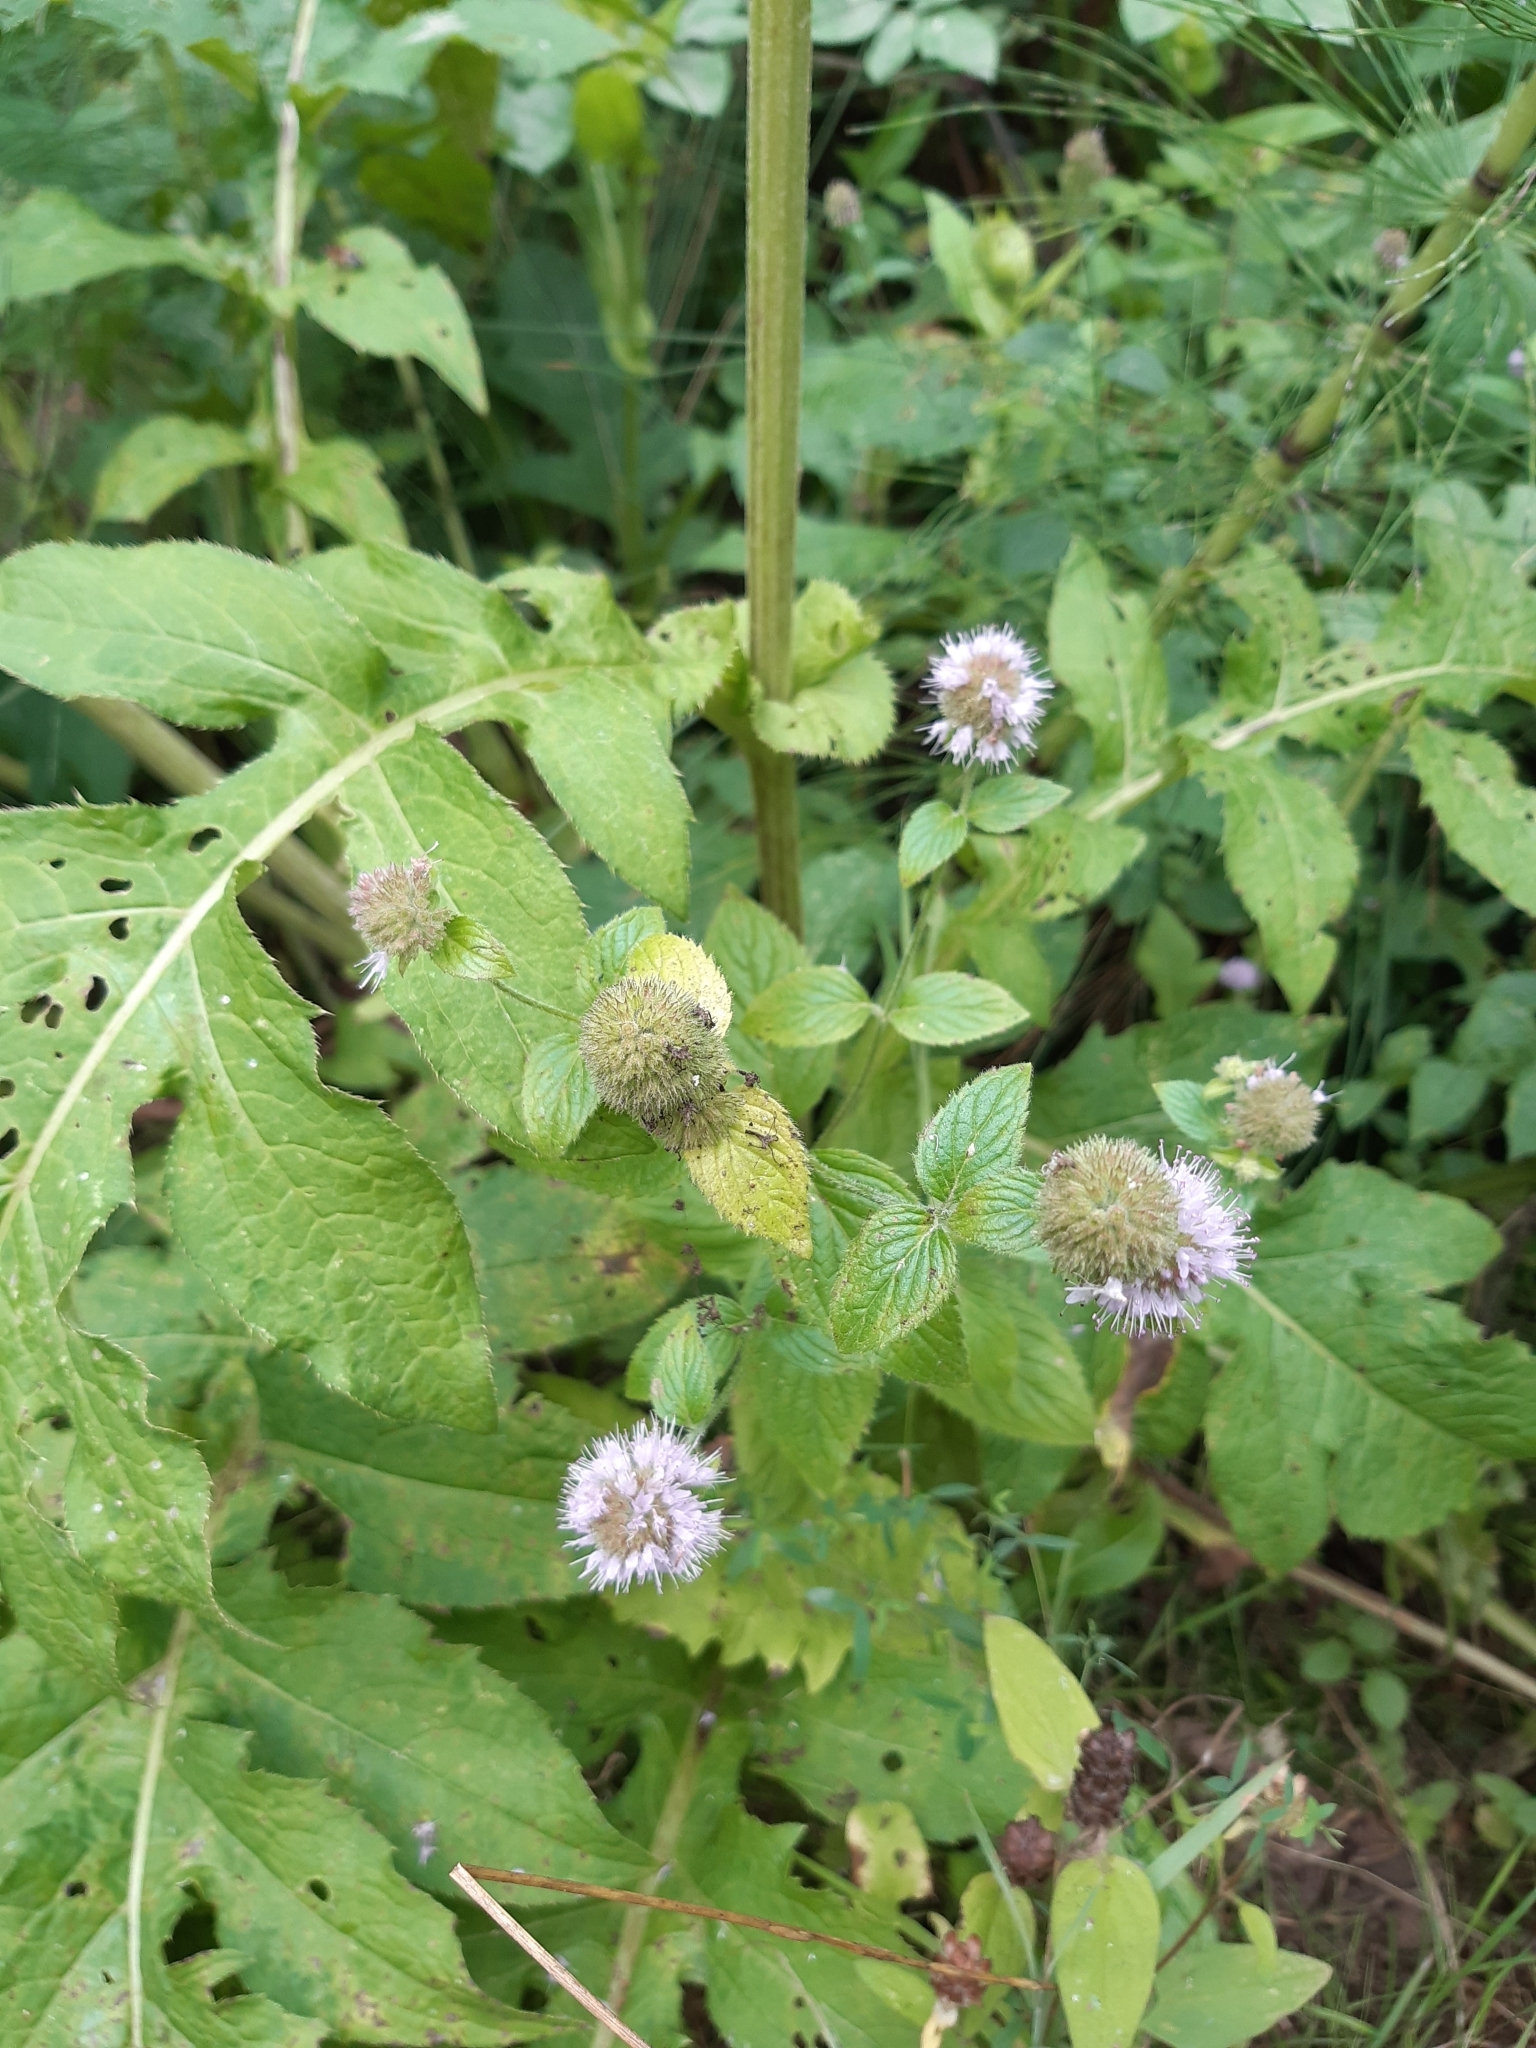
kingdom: Plantae
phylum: Tracheophyta
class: Magnoliopsida
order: Lamiales
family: Lamiaceae
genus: Mentha
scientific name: Mentha aquatica
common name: Water mint
